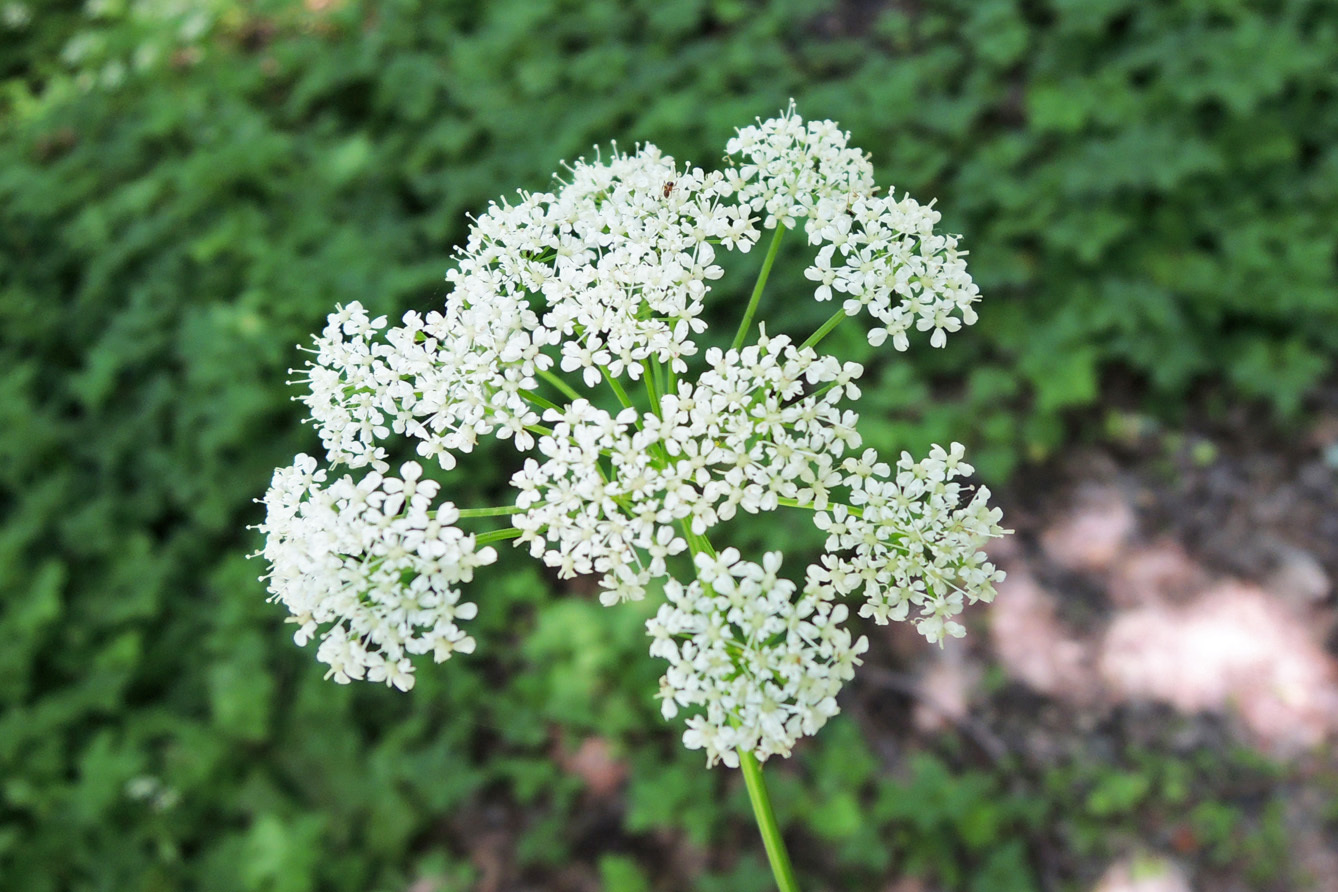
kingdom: Plantae
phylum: Tracheophyta
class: Magnoliopsida
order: Apiales
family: Apiaceae
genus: Aegopodium
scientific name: Aegopodium podagraria
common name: Ground-elder
